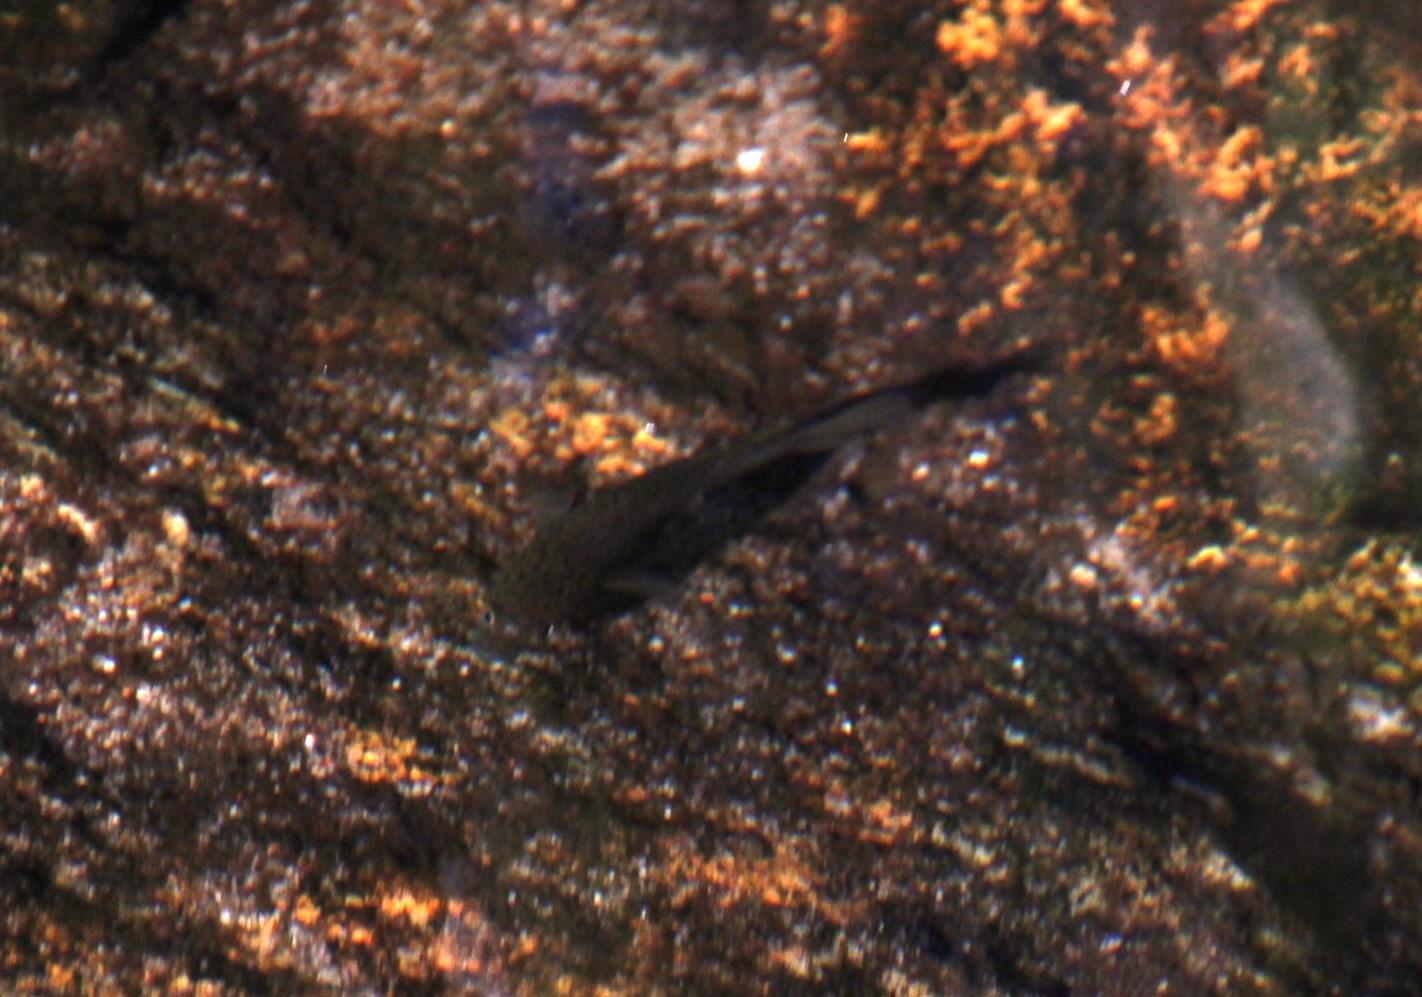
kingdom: Animalia
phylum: Chordata
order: Perciformes
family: Anabantidae
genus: Sandelia
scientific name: Sandelia capensis
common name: Cape kurper
